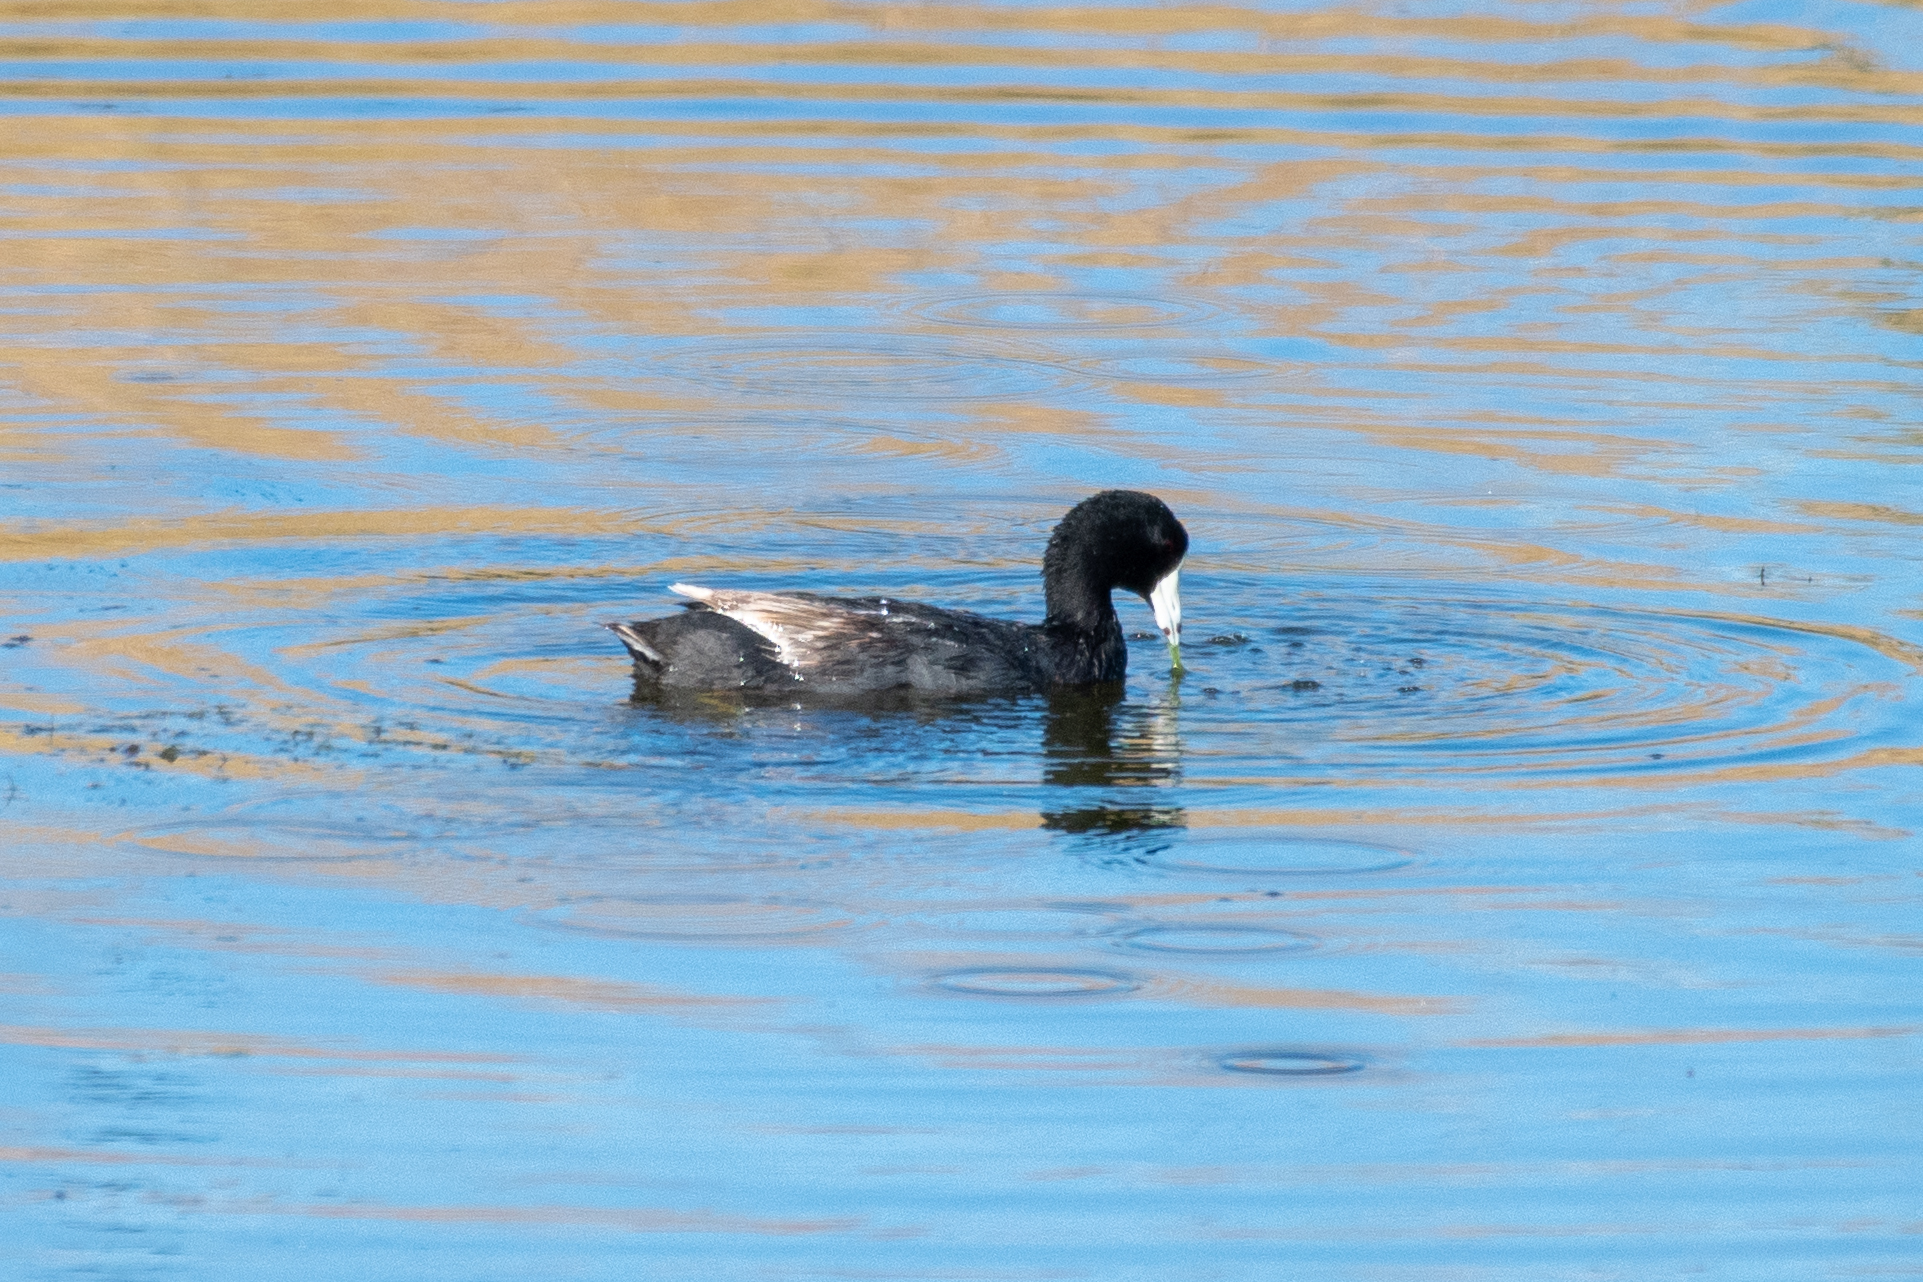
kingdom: Animalia
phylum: Chordata
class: Aves
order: Gruiformes
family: Rallidae
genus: Fulica
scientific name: Fulica americana
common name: American coot
